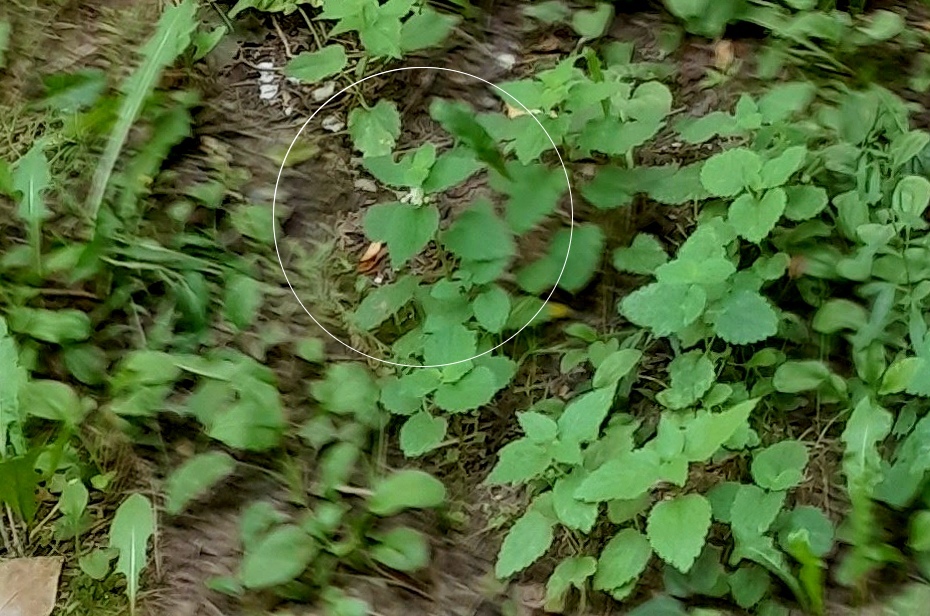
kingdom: Plantae
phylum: Tracheophyta
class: Magnoliopsida
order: Lamiales
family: Lamiaceae
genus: Lamium
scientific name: Lamium album
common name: White dead-nettle
